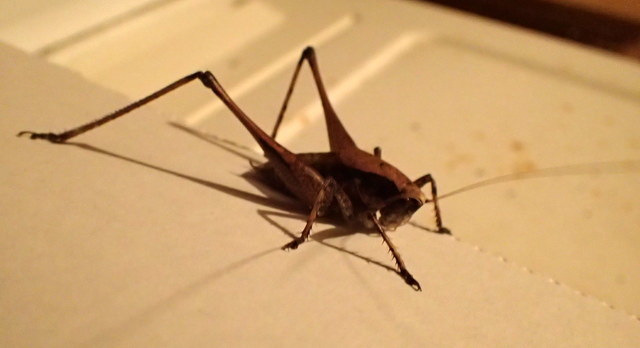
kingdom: Animalia
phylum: Arthropoda
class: Insecta
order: Orthoptera
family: Tettigoniidae
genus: Atlanticus
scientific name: Atlanticus gibbosus
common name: Robust shield-bearer
